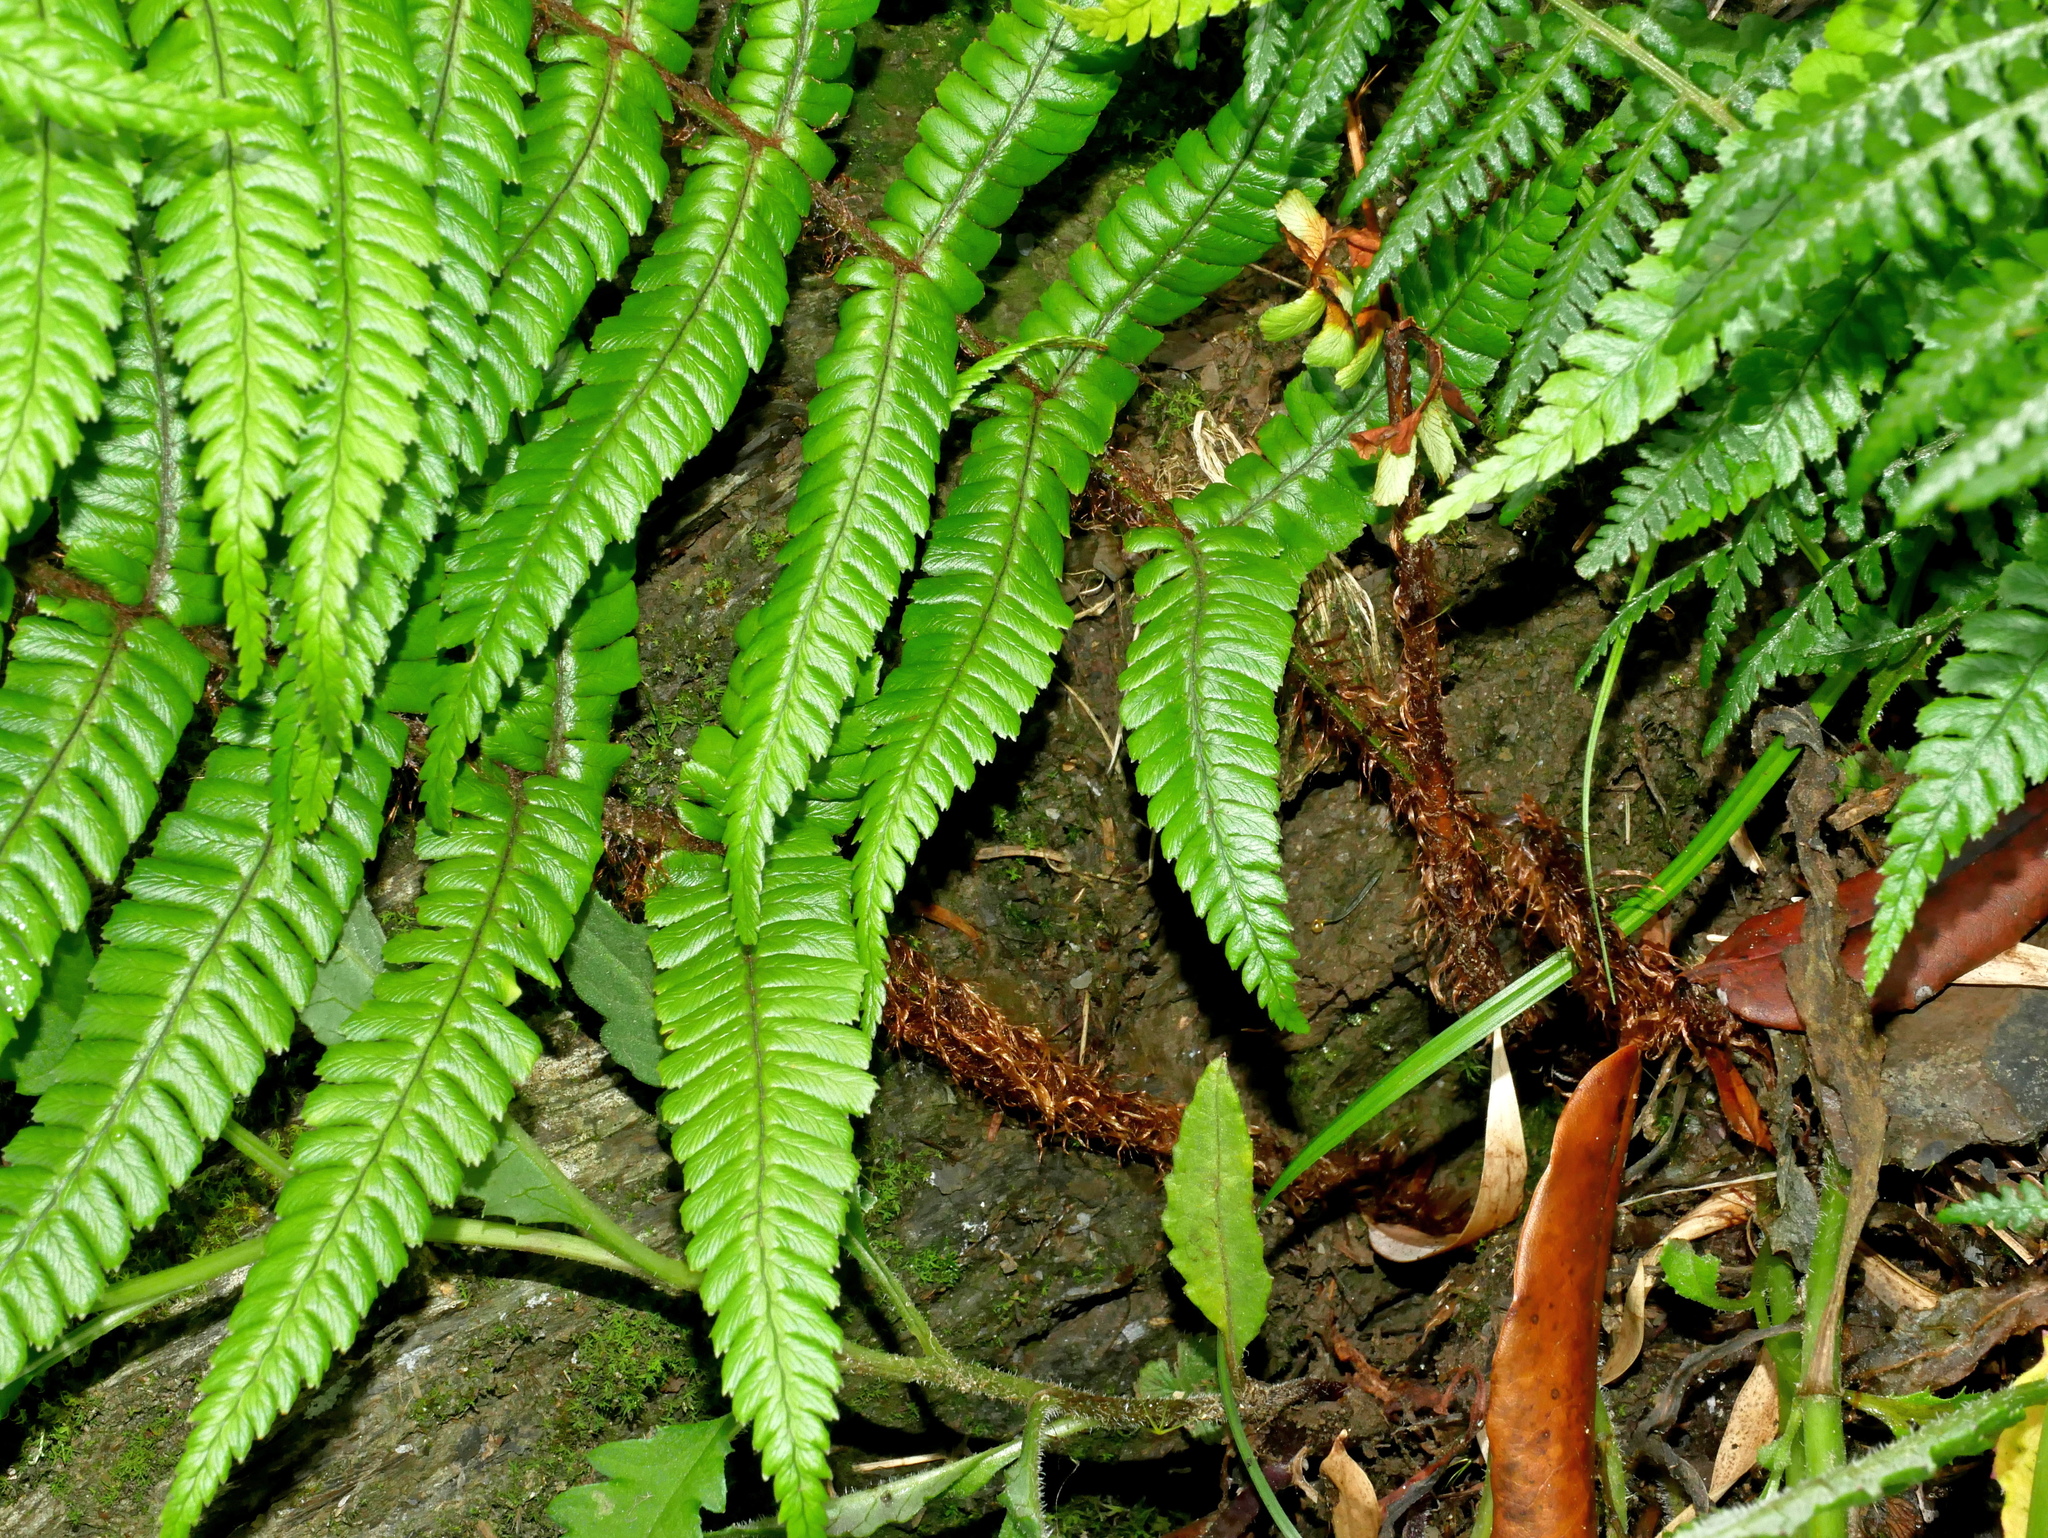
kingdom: Plantae
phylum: Tracheophyta
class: Polypodiopsida
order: Polypodiales
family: Dryopteridaceae
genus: Dryopteris
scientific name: Dryopteris lepidopoda
